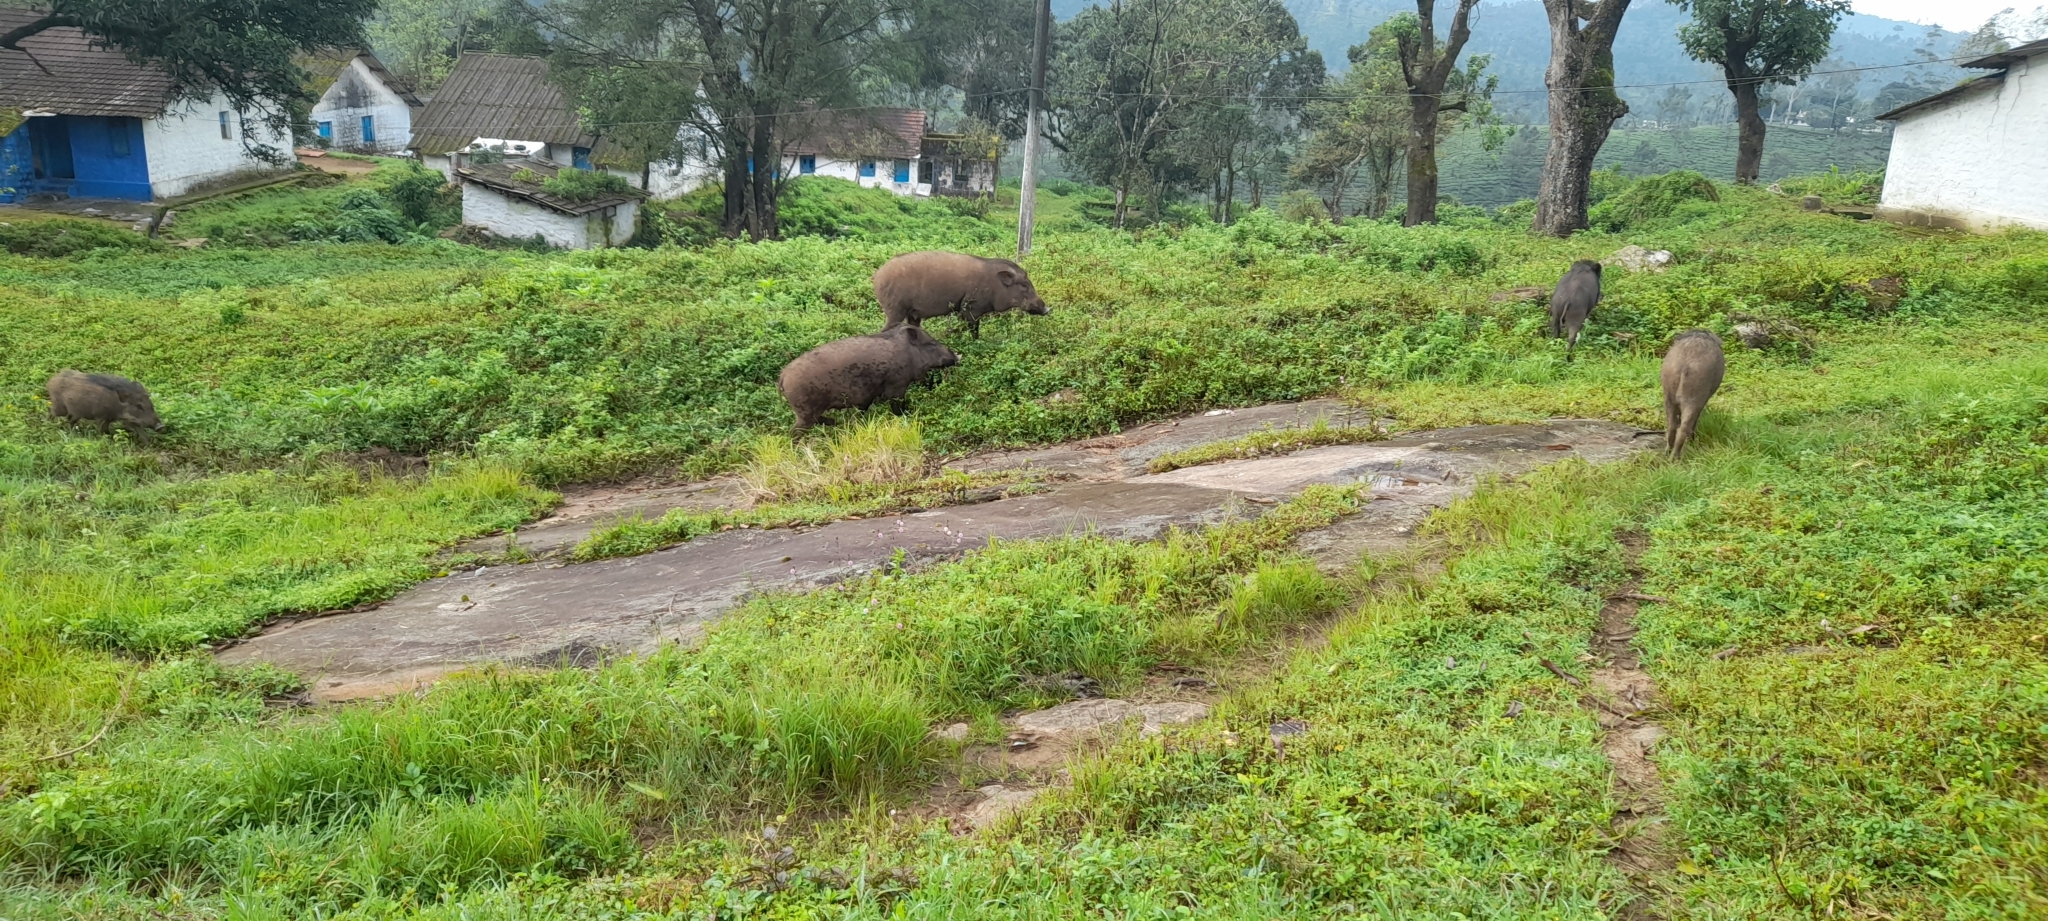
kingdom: Animalia
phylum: Chordata
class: Mammalia
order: Artiodactyla
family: Suidae
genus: Sus
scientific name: Sus scrofa
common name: Wild boar
